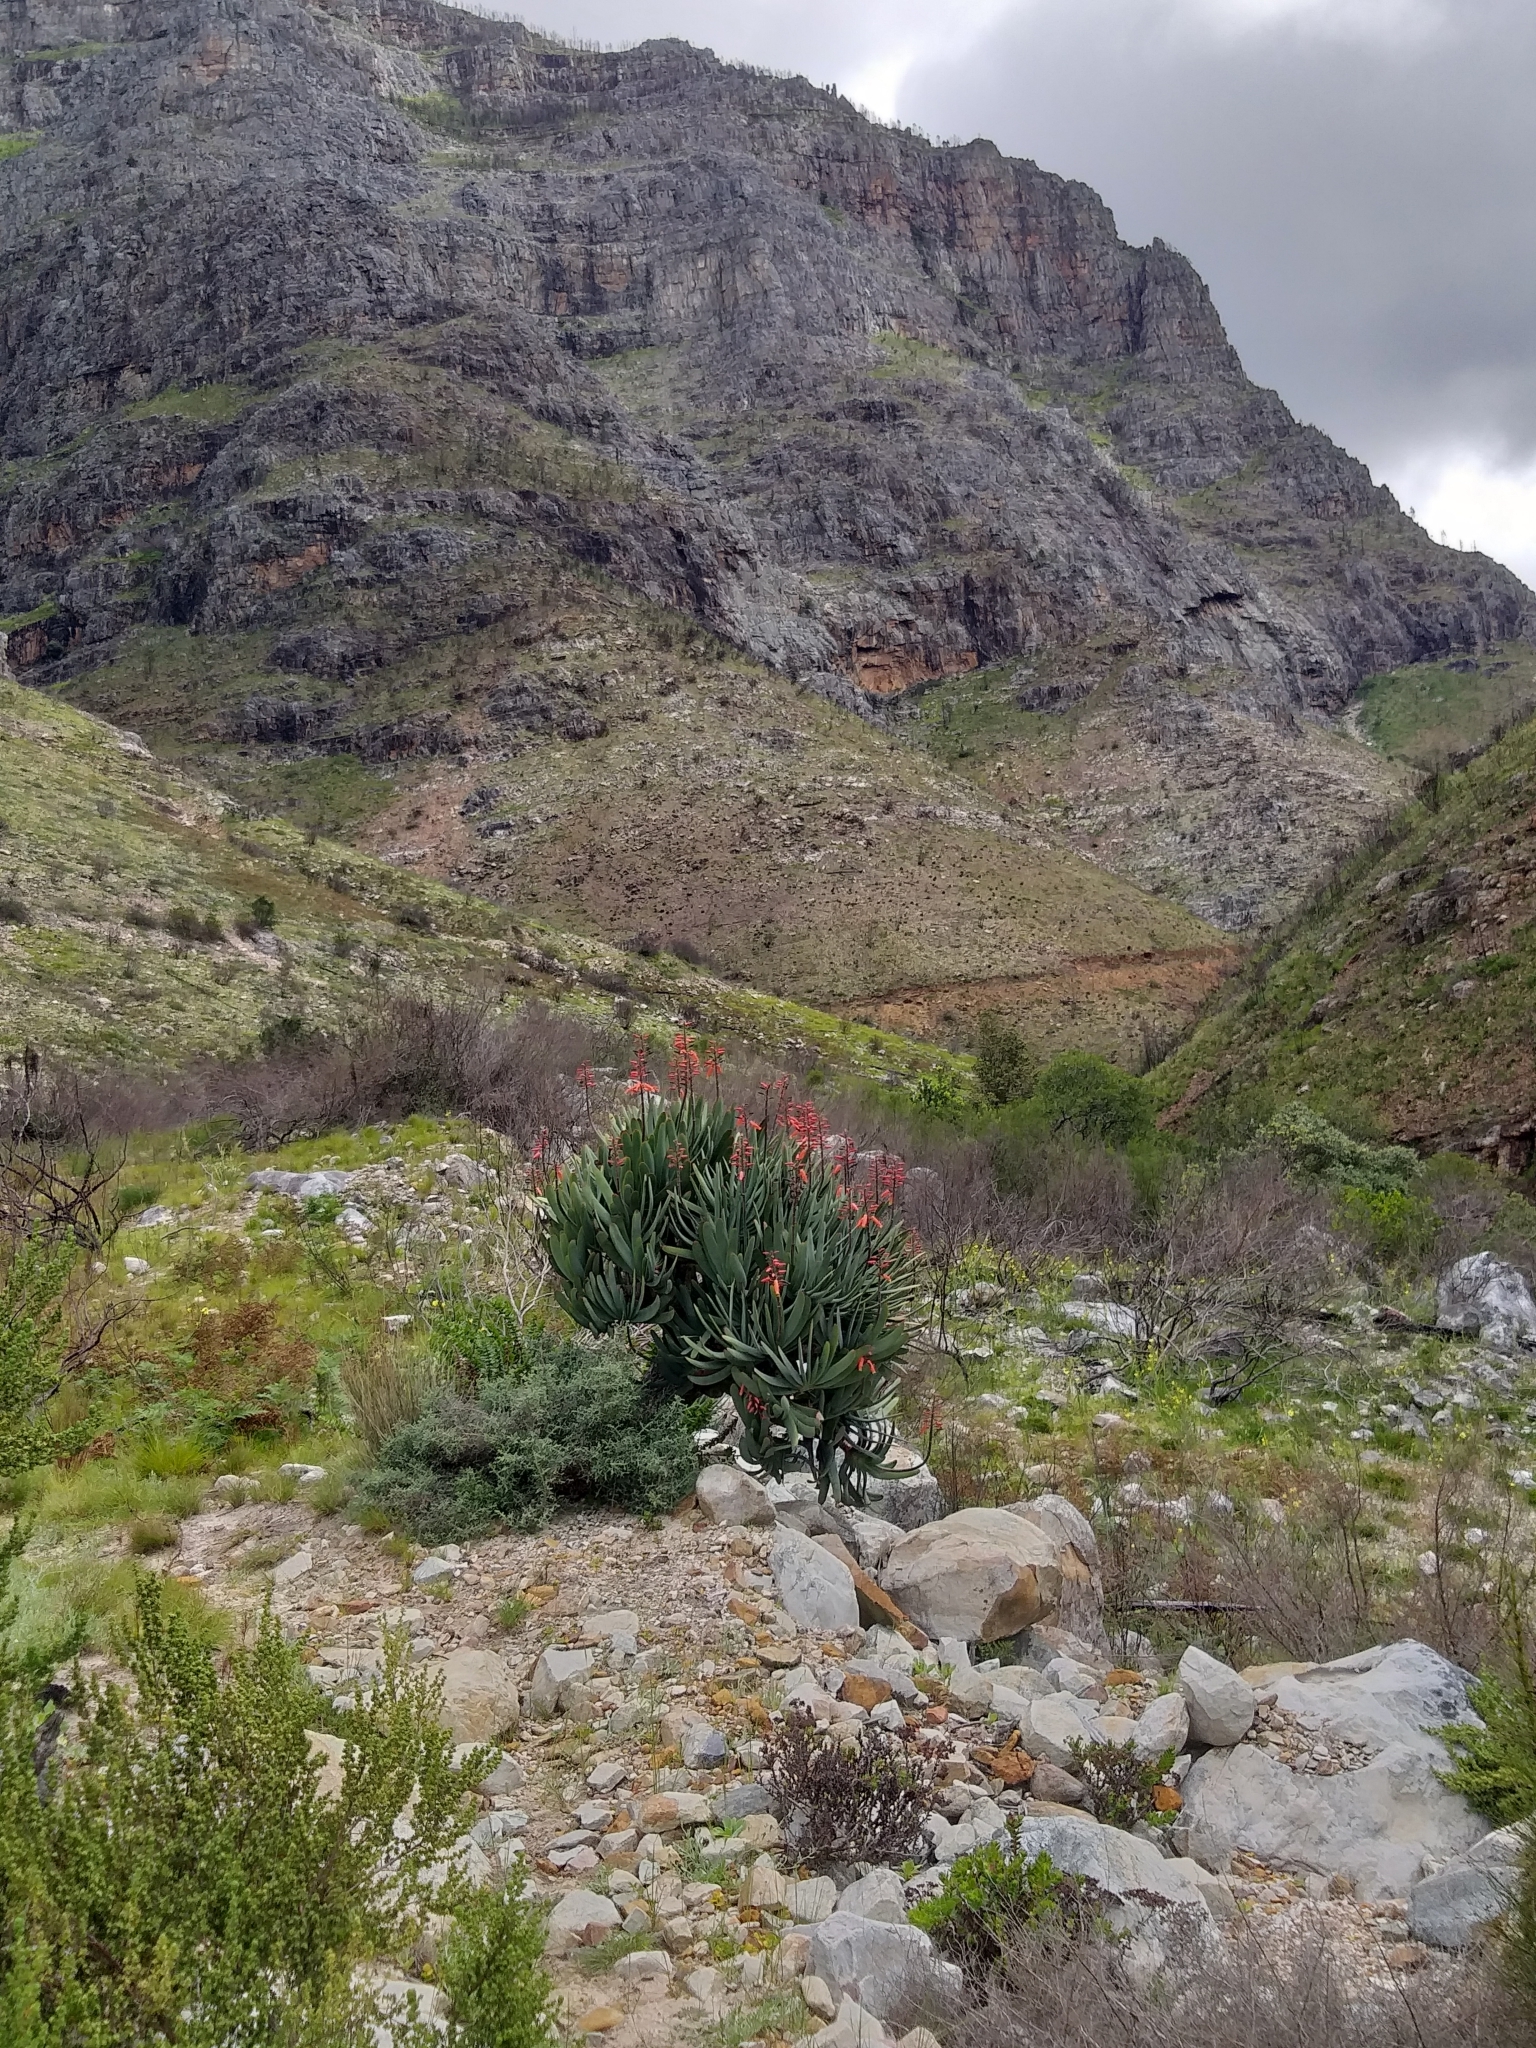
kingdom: Plantae
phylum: Tracheophyta
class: Liliopsida
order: Asparagales
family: Asphodelaceae
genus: Kumara
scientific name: Kumara plicatilis
